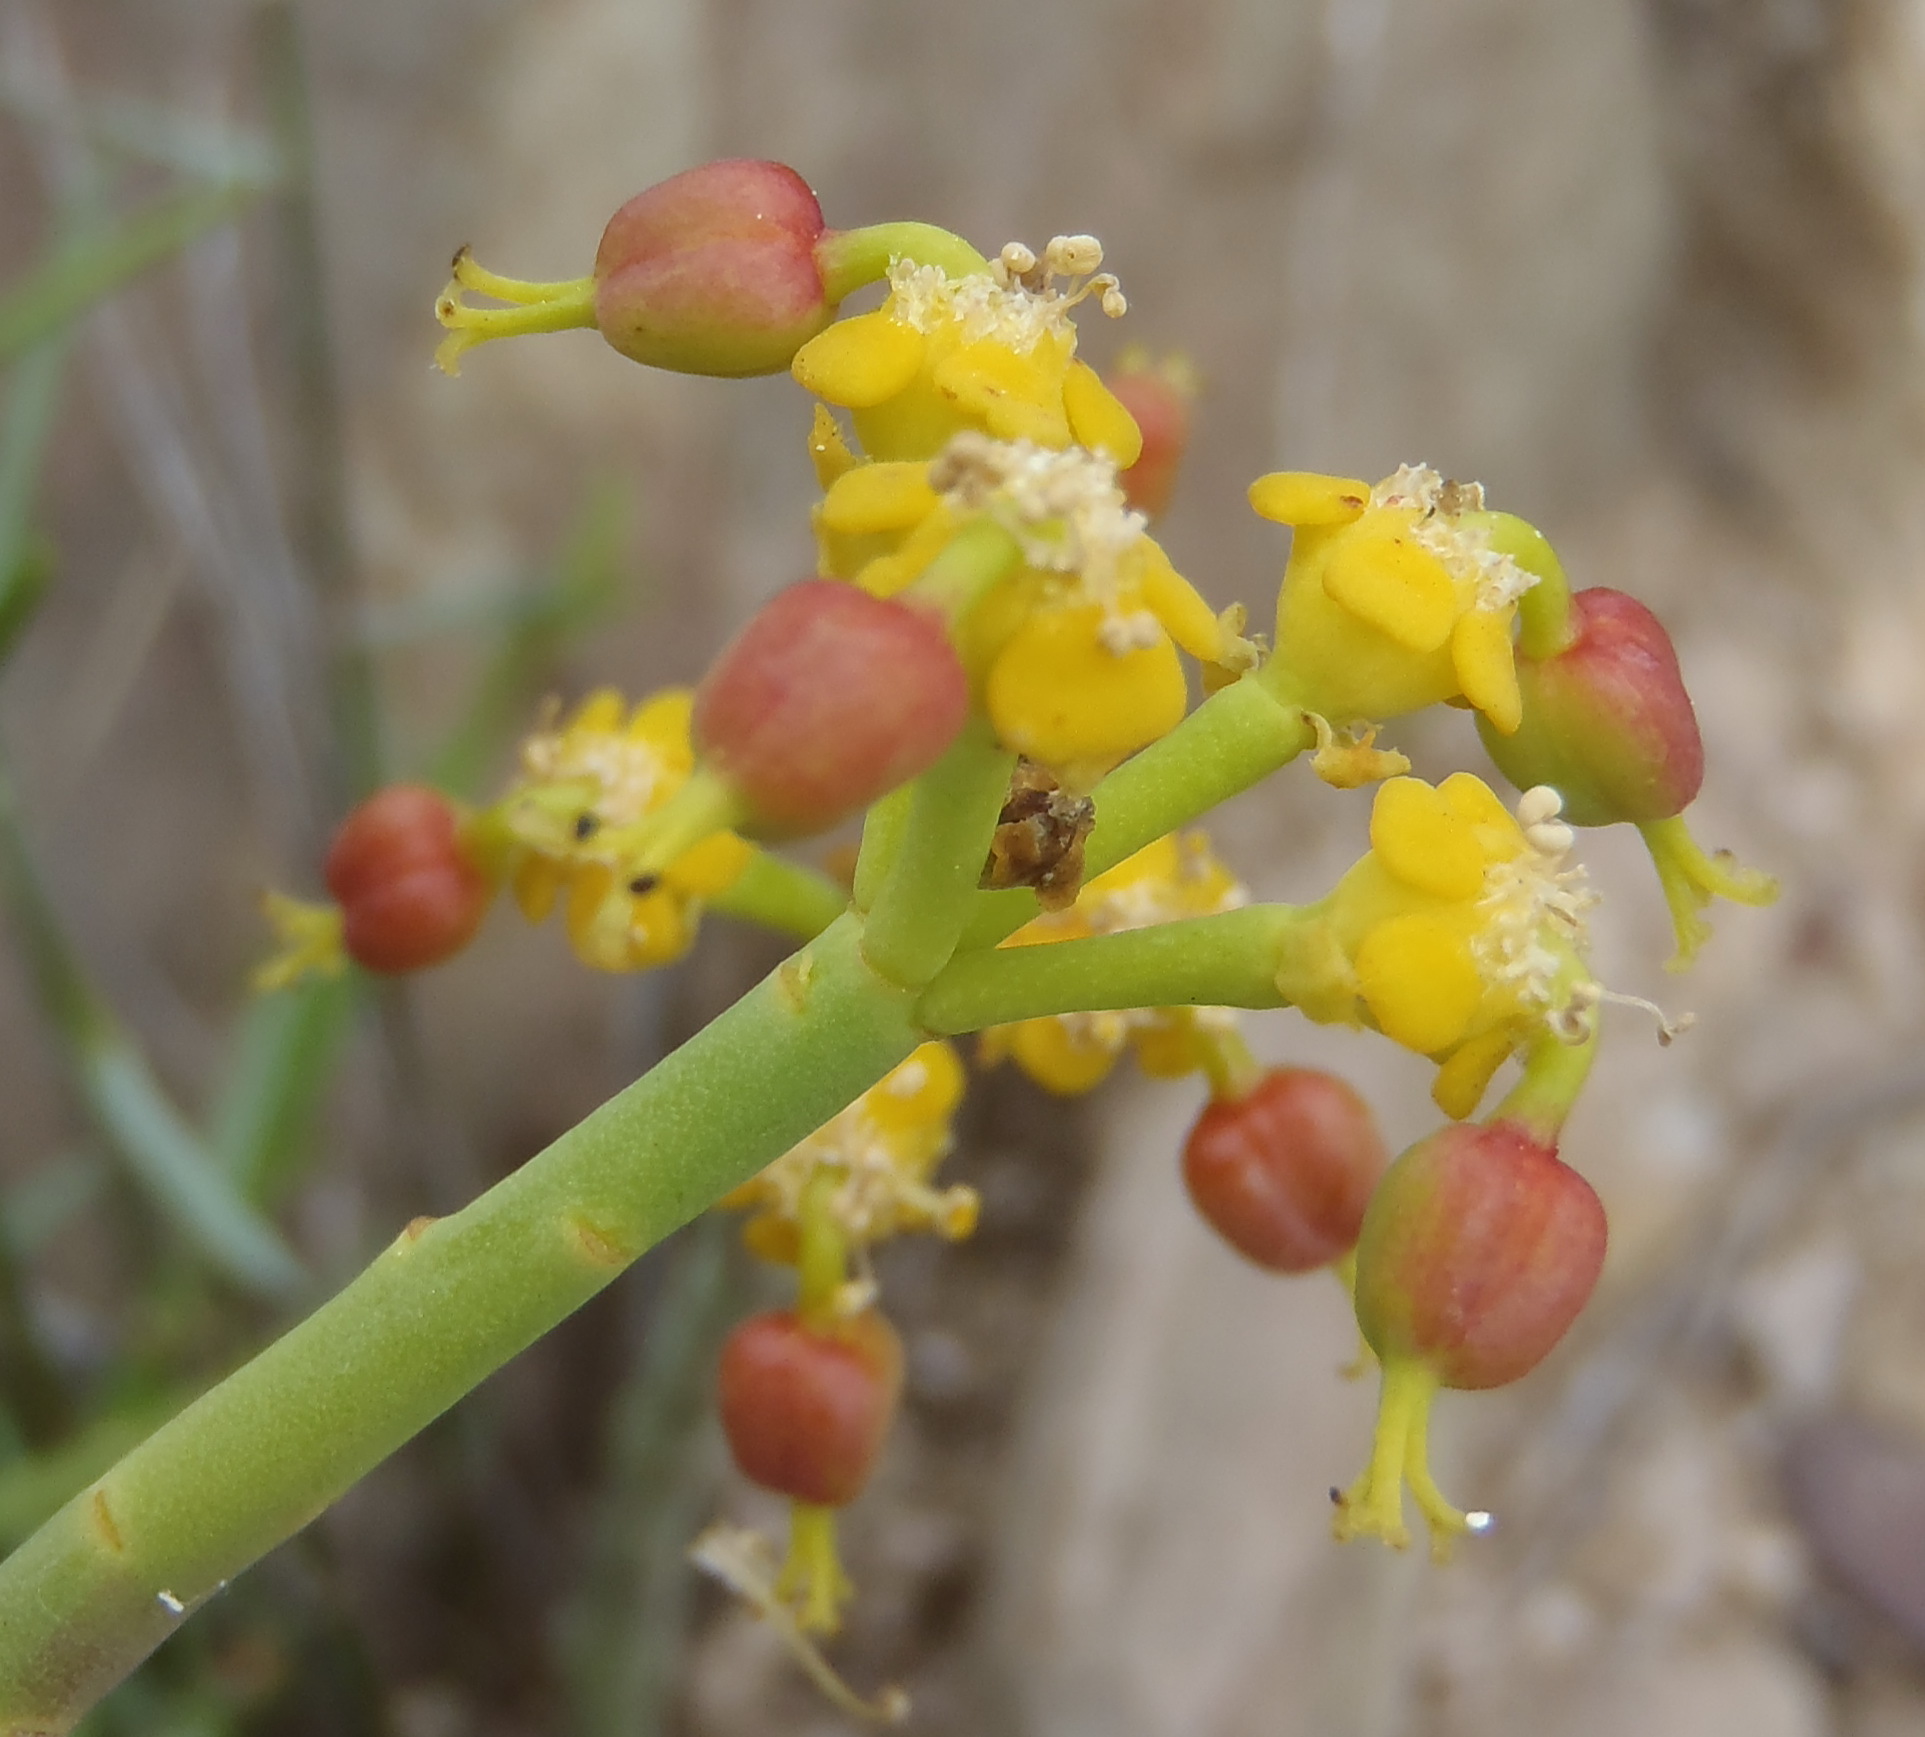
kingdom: Plantae
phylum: Tracheophyta
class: Magnoliopsida
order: Malpighiales
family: Euphorbiaceae
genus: Euphorbia
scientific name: Euphorbia mauritanica
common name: Jackal's-food
